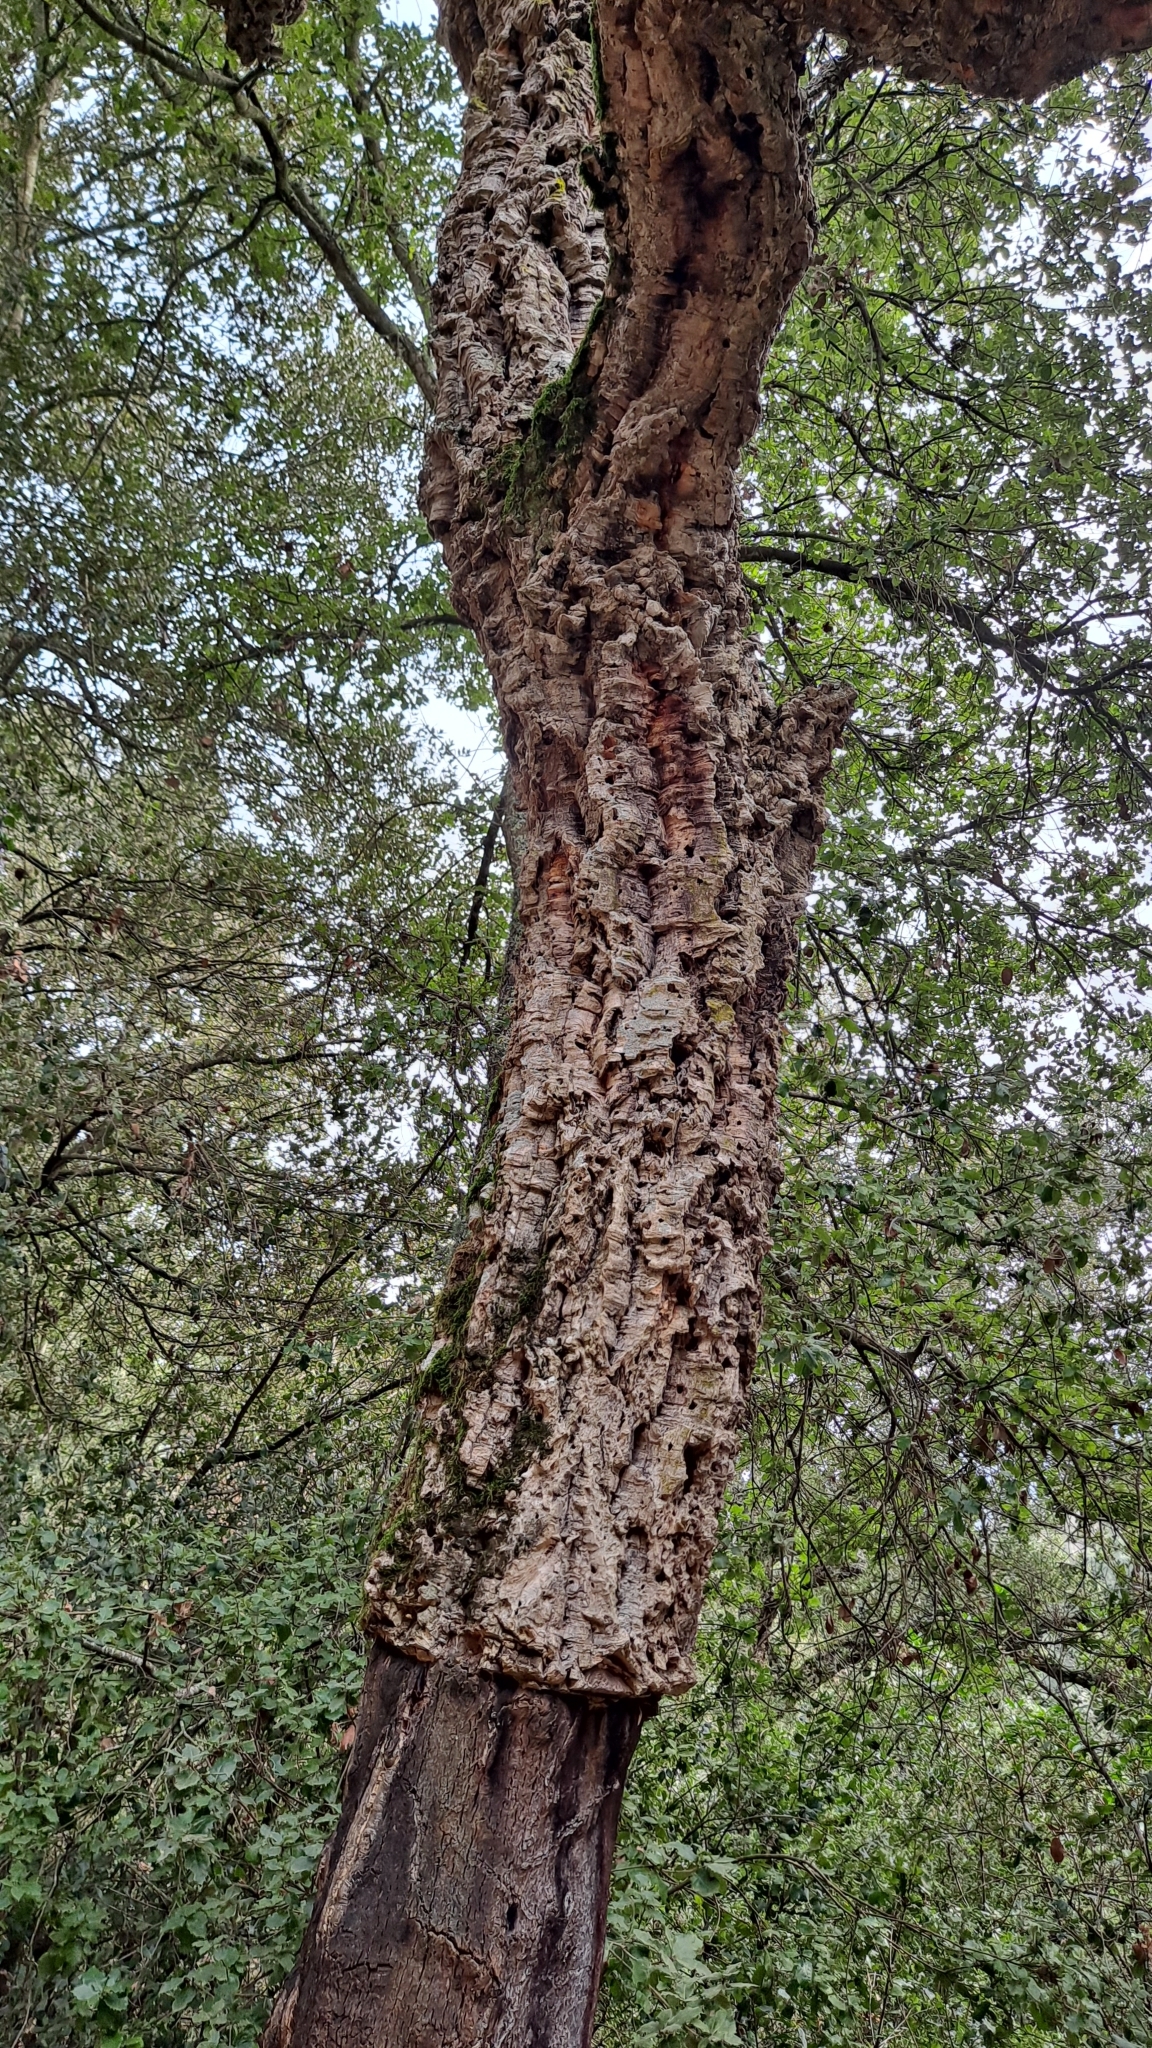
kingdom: Plantae
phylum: Tracheophyta
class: Magnoliopsida
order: Fagales
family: Fagaceae
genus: Quercus
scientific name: Quercus suber
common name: Cork oak
